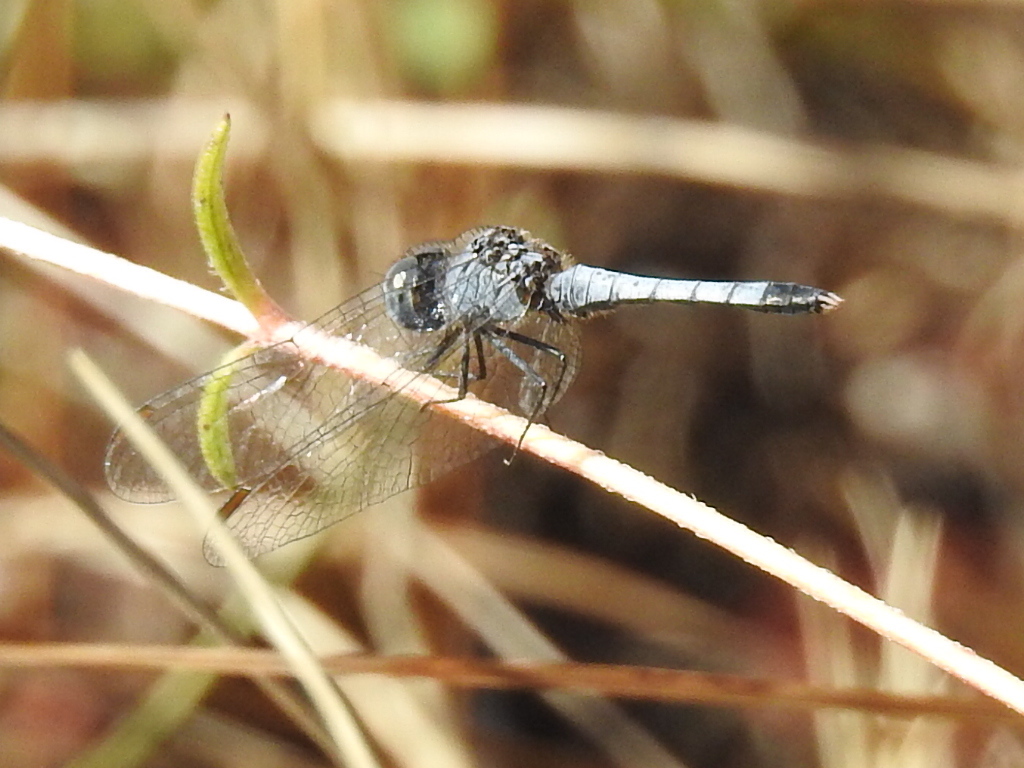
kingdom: Animalia
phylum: Arthropoda
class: Insecta
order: Odonata
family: Libellulidae
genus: Erythrodiplax
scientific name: Erythrodiplax minuscula
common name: Little blue dragonlet
